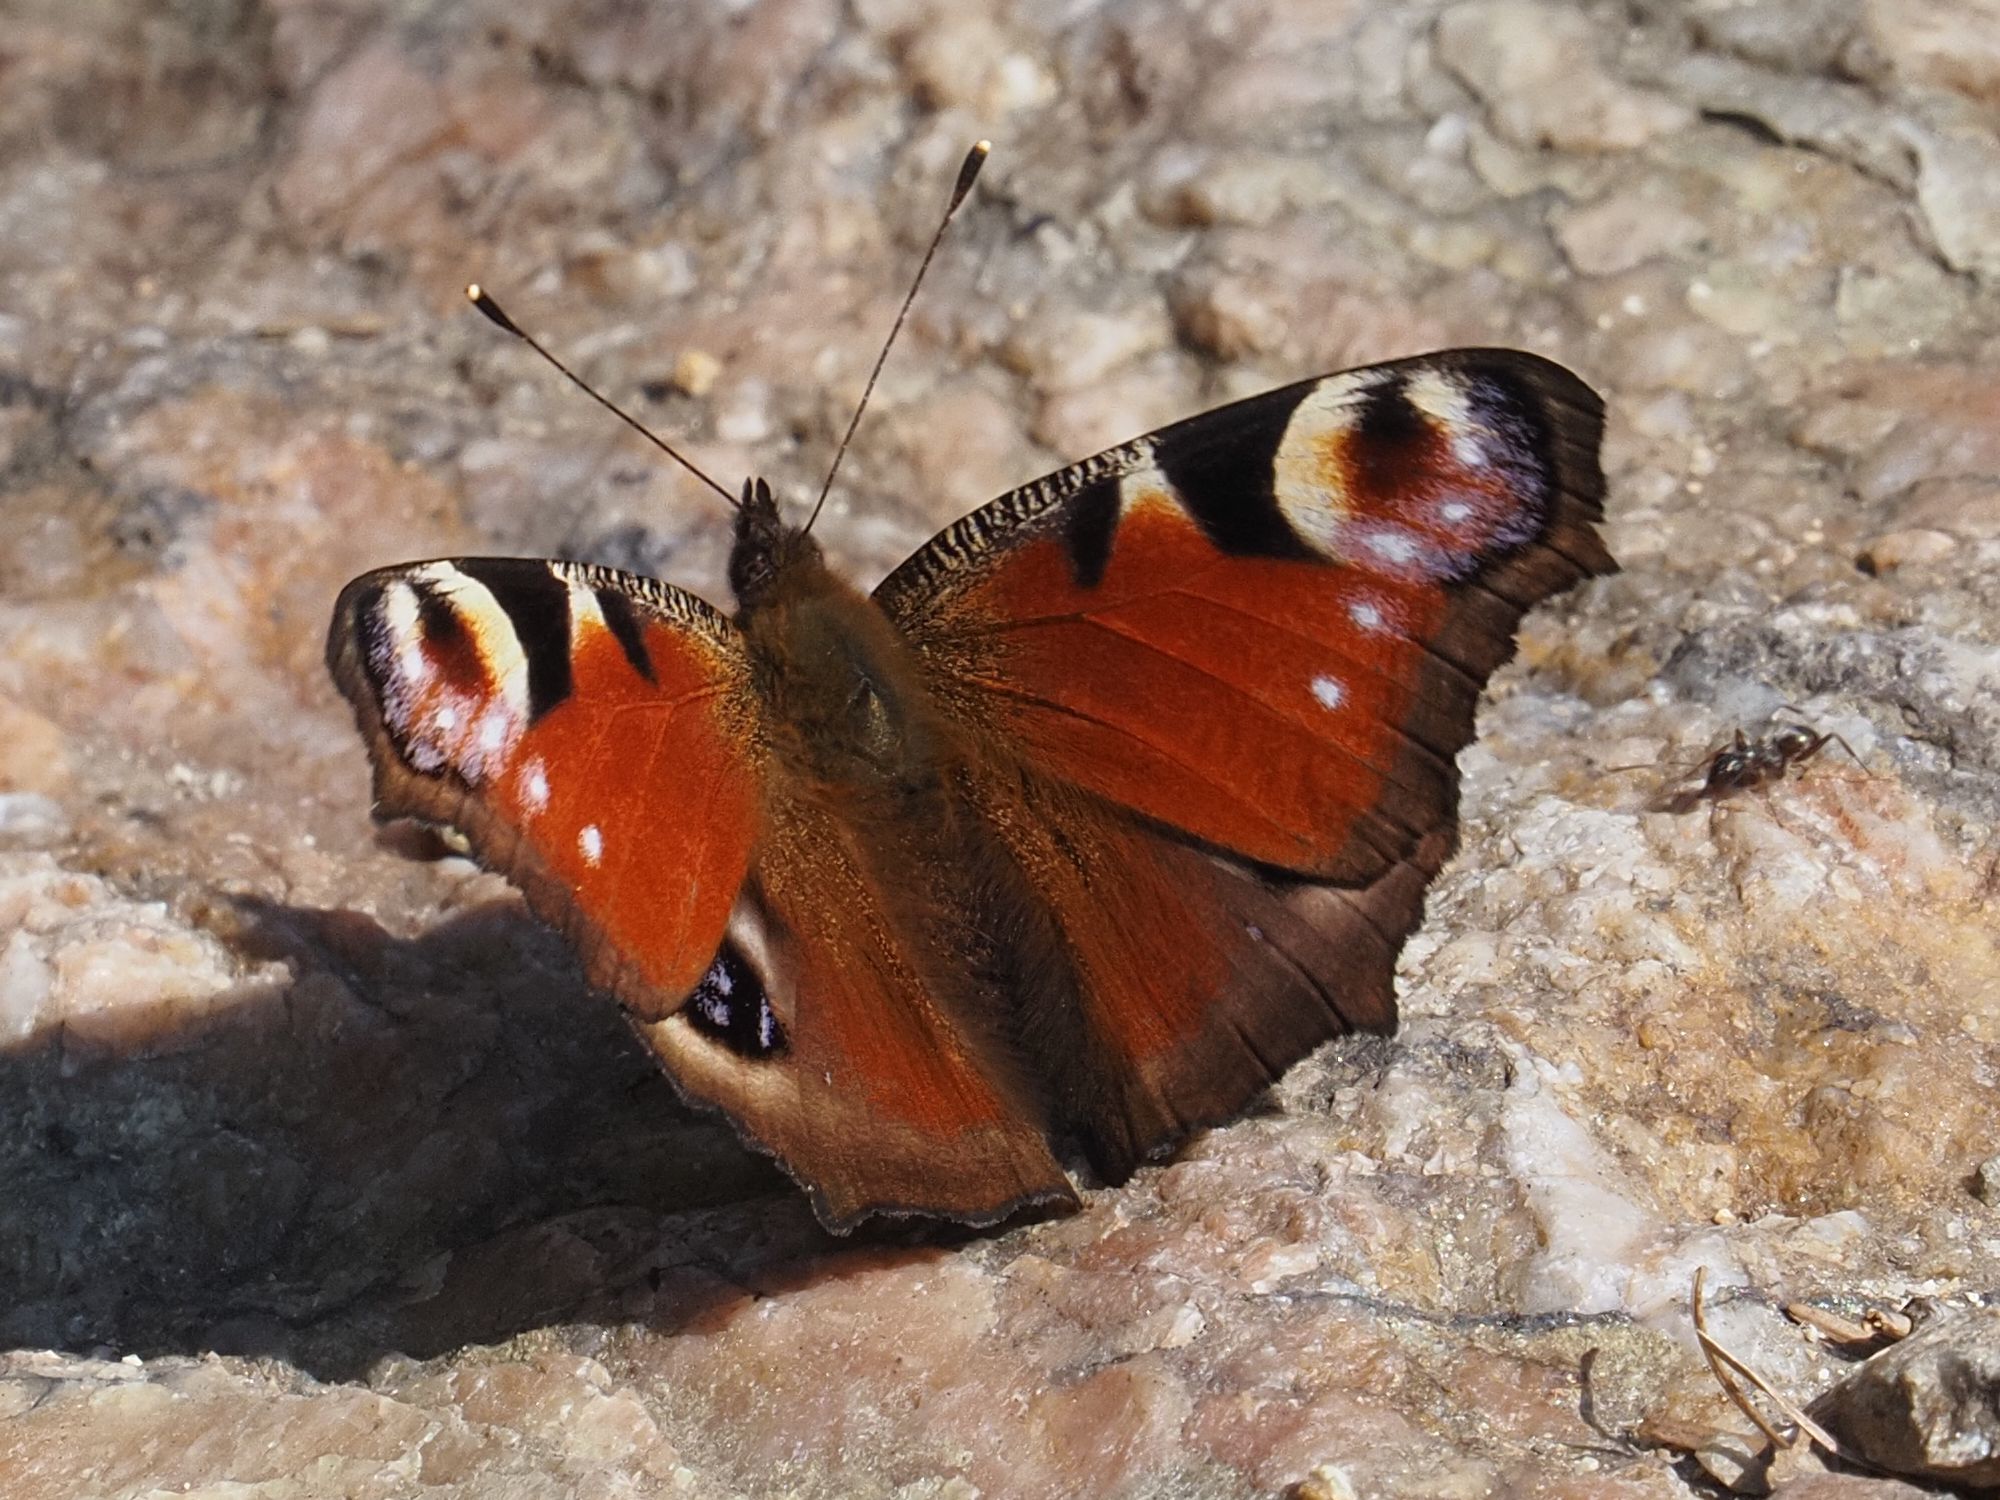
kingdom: Animalia
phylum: Arthropoda
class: Insecta
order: Lepidoptera
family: Nymphalidae
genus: Aglais
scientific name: Aglais io
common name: Peacock
